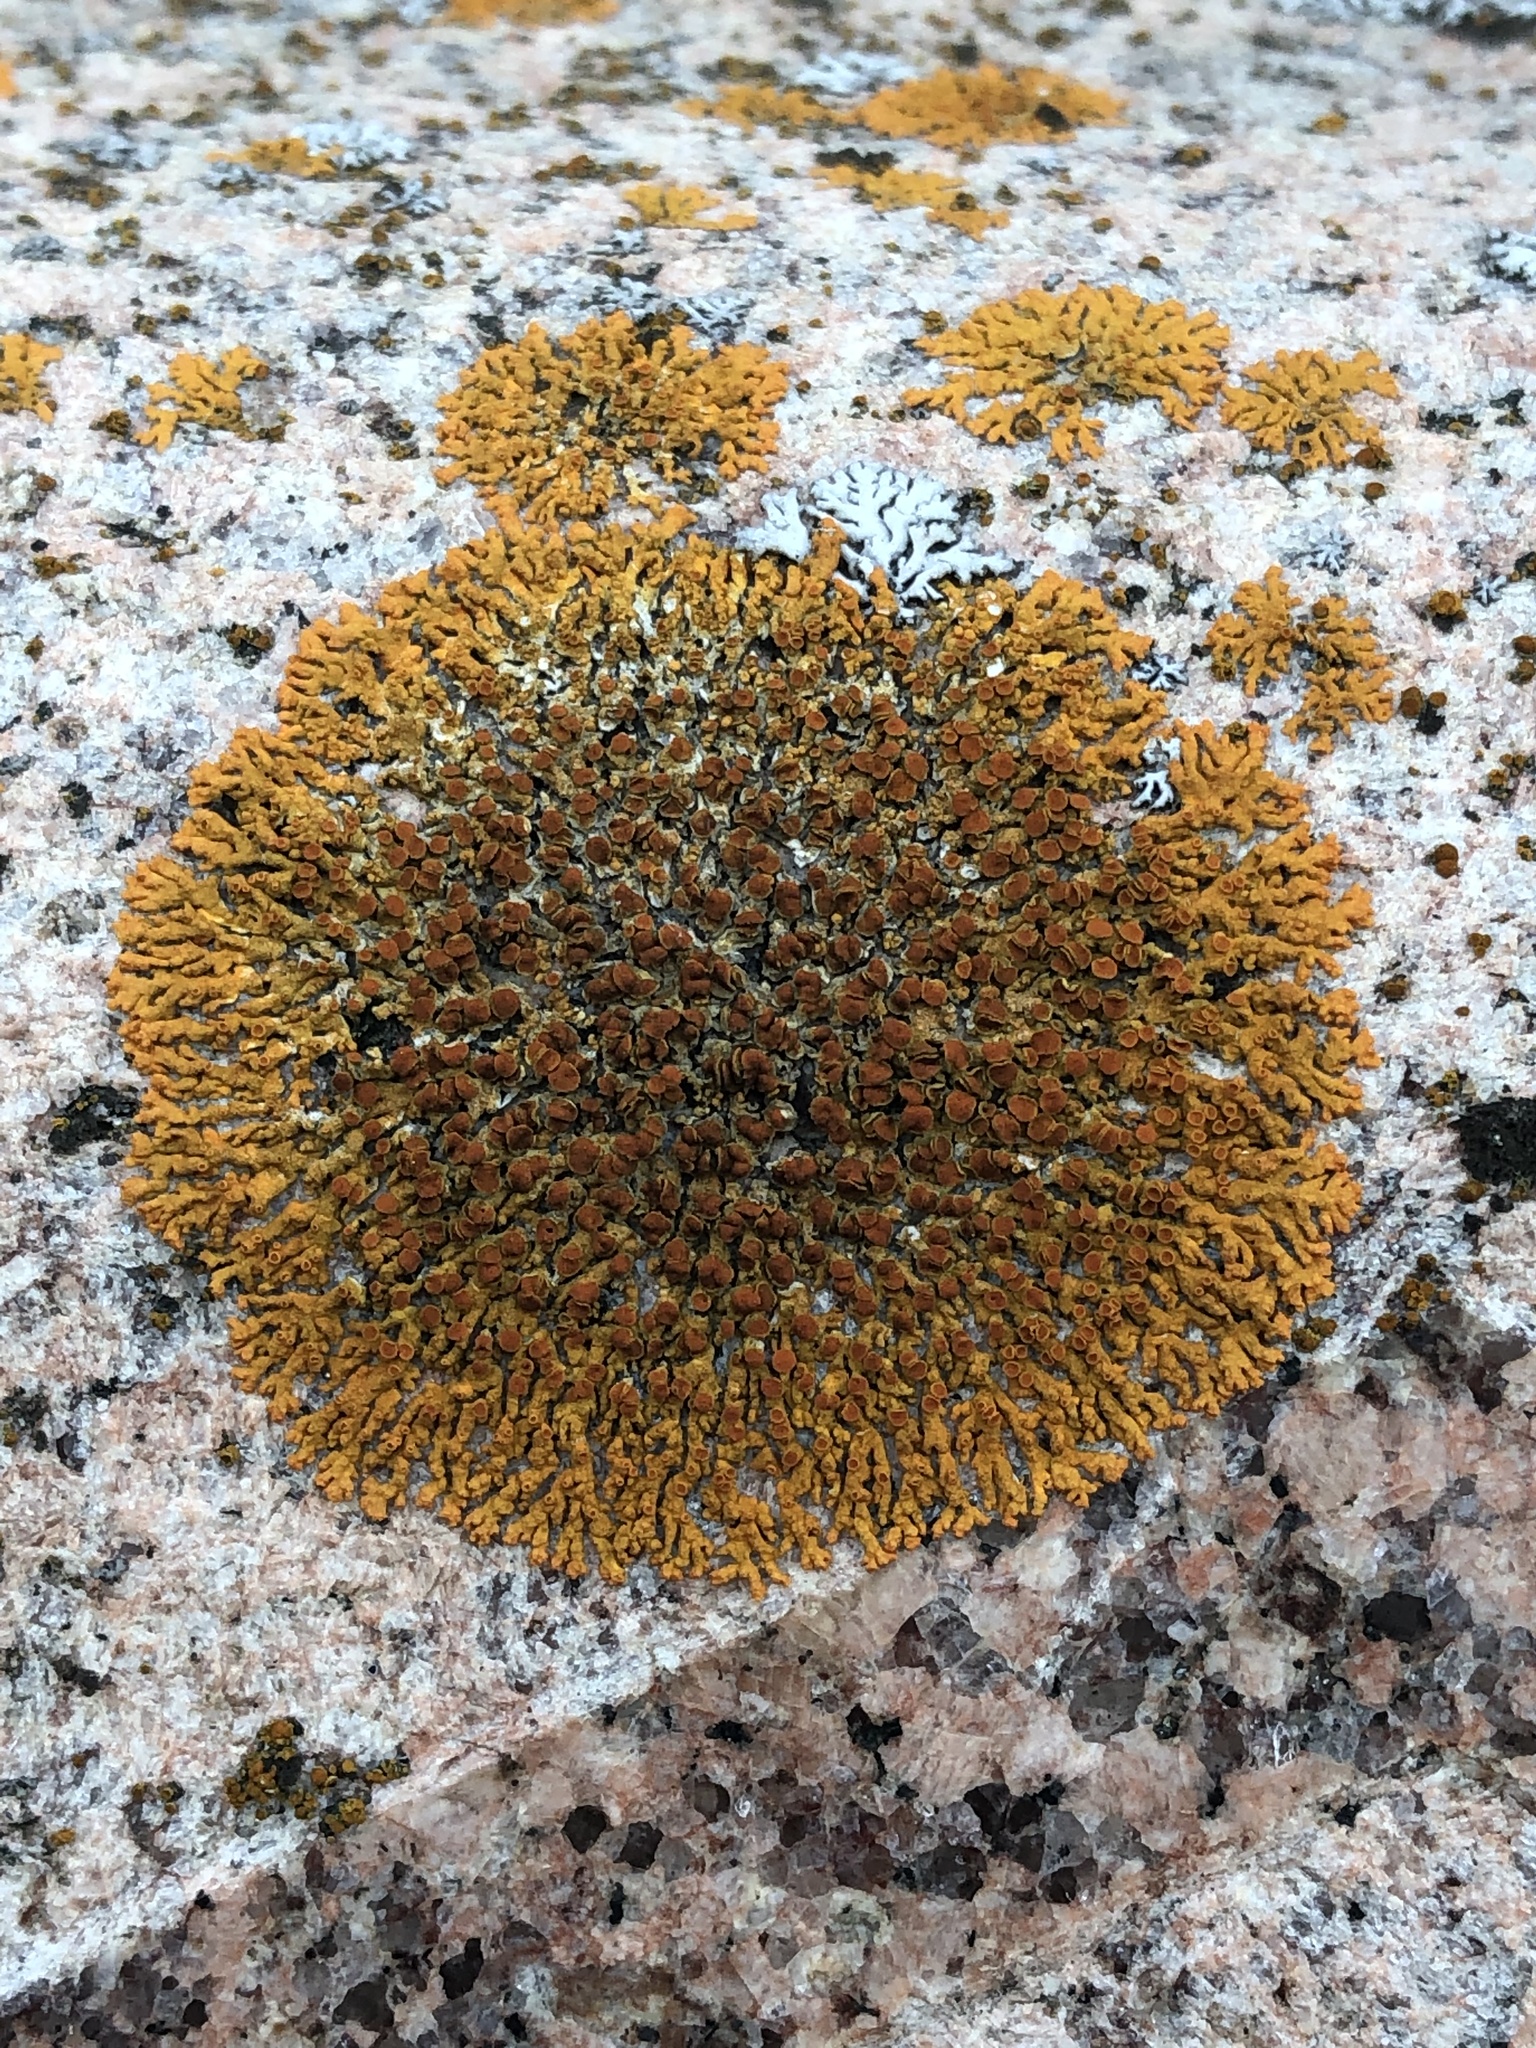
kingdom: Fungi
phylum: Ascomycota
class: Lecanoromycetes
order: Teloschistales
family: Teloschistaceae
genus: Xanthoria
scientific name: Xanthoria elegans
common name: Elegant sunburst lichen
